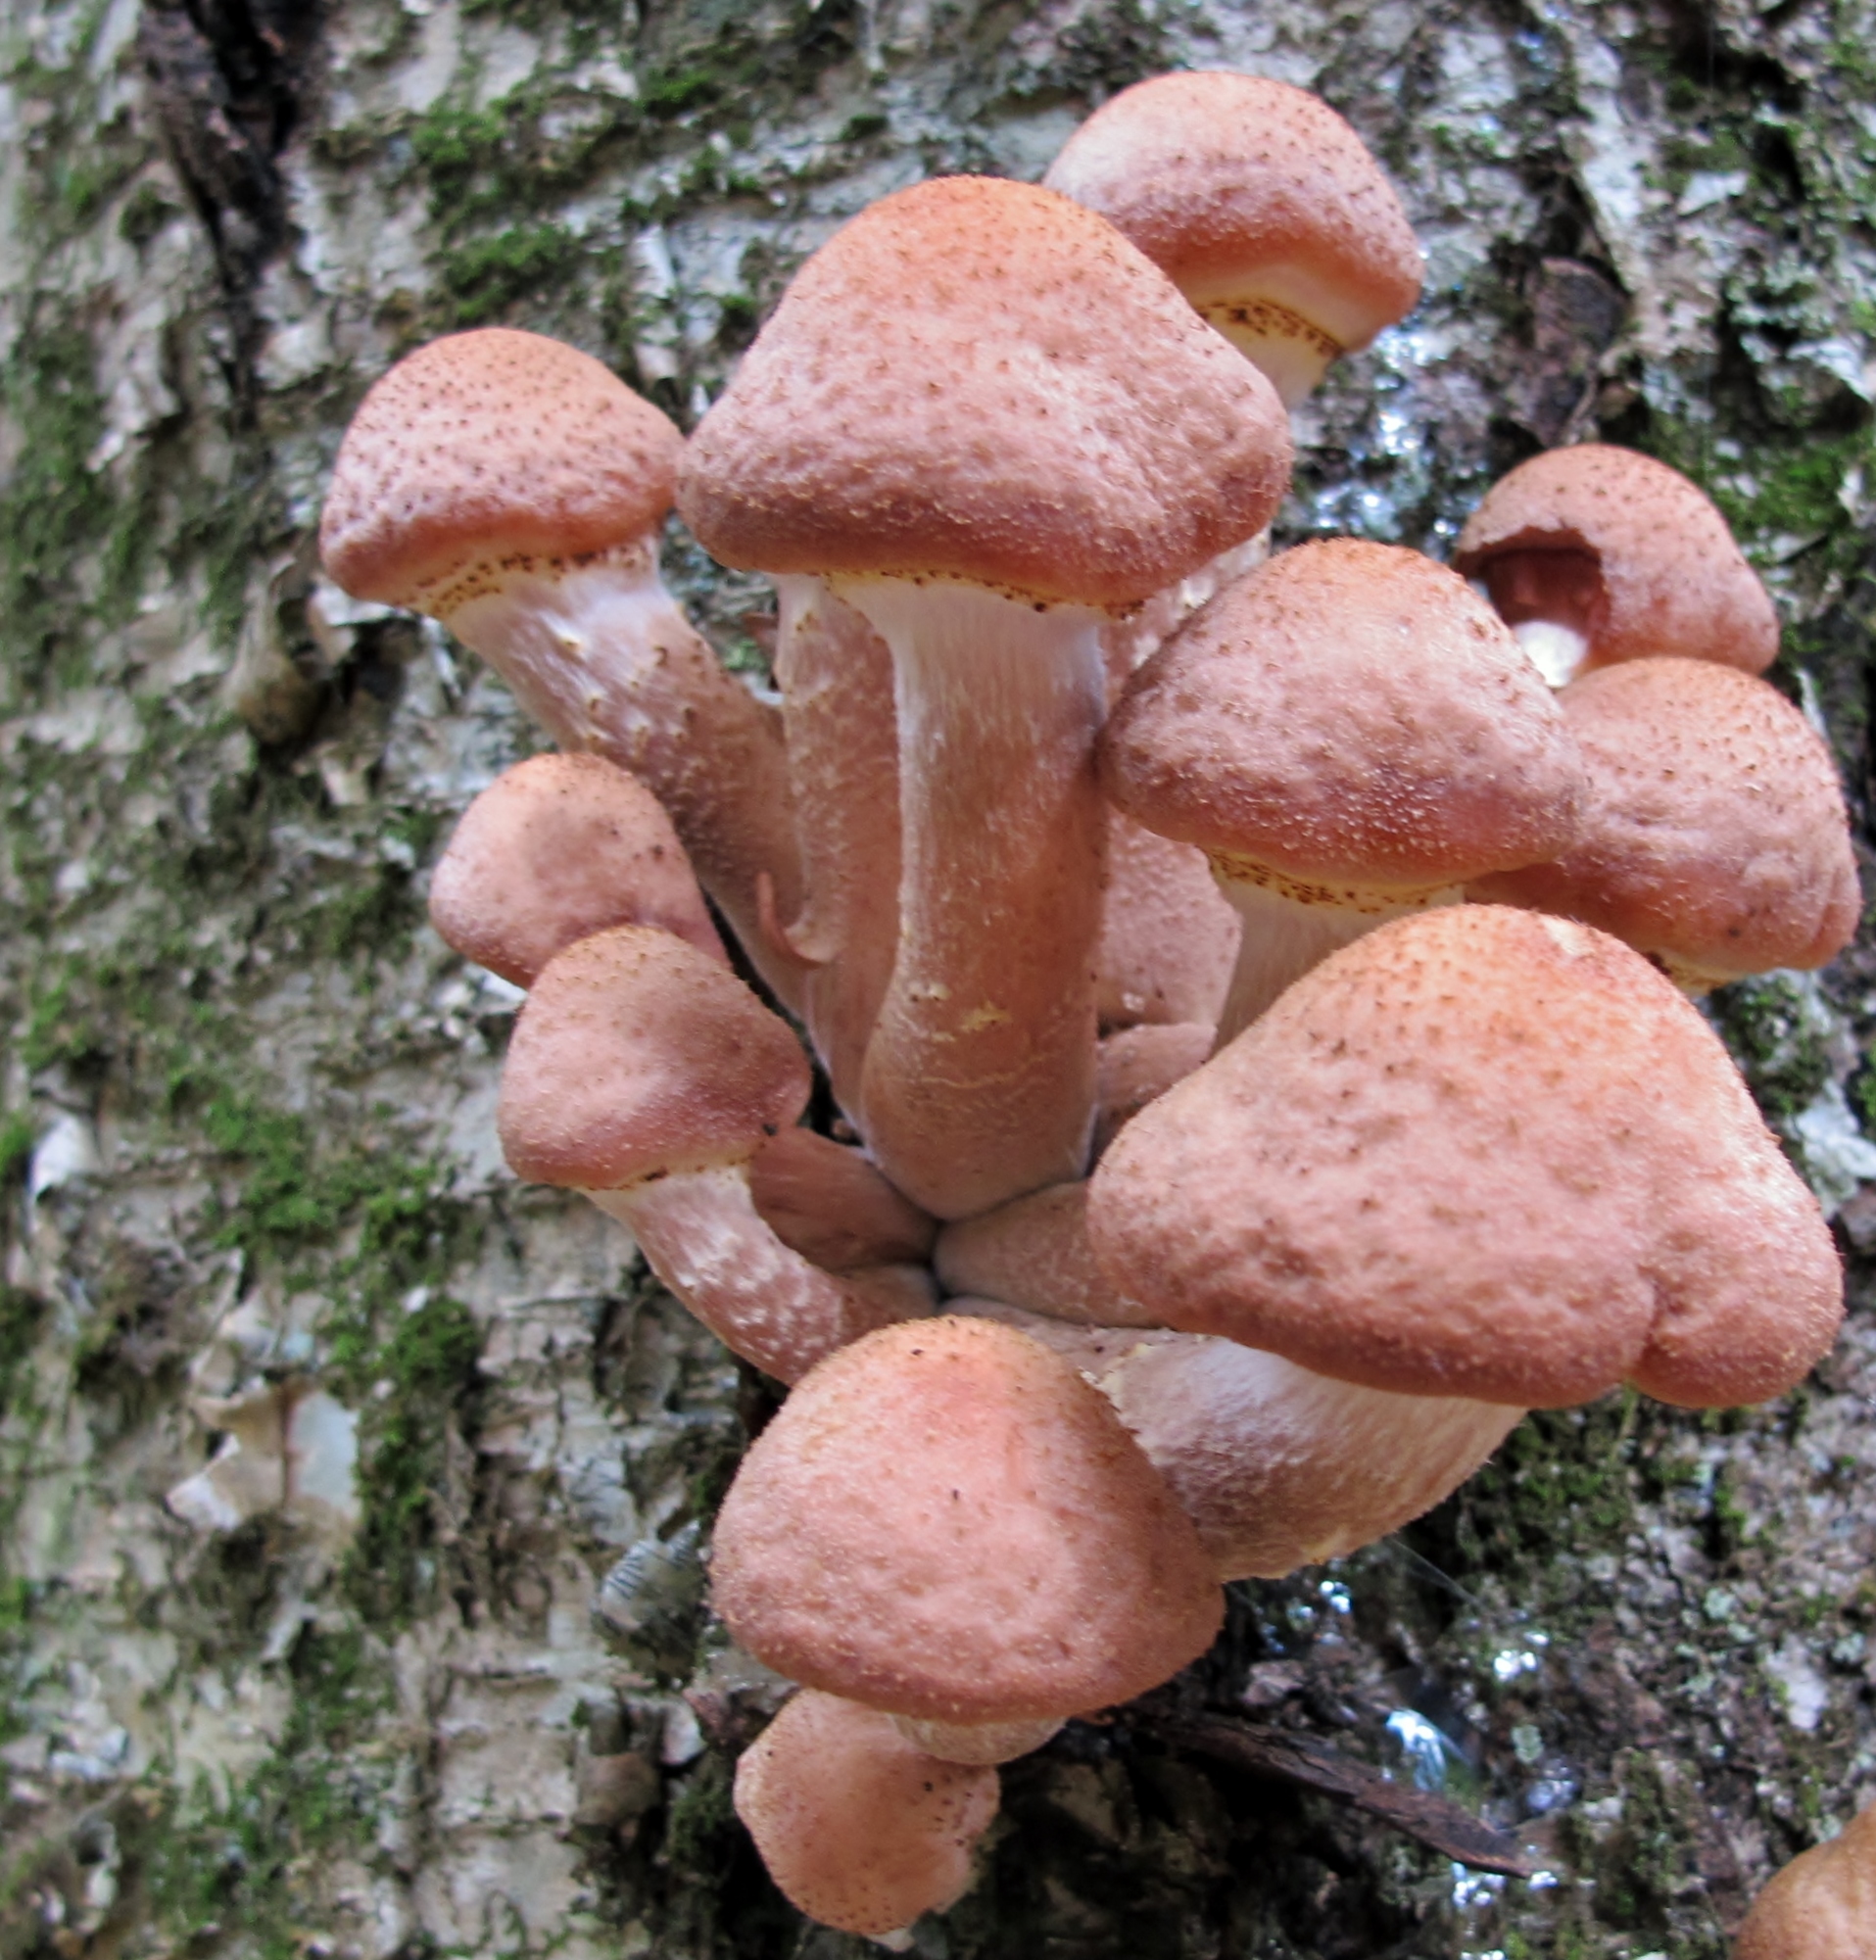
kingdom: Fungi
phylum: Basidiomycota
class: Agaricomycetes
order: Agaricales
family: Physalacriaceae
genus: Armillaria
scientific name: Armillaria ostoyae
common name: Dark honey fungus
